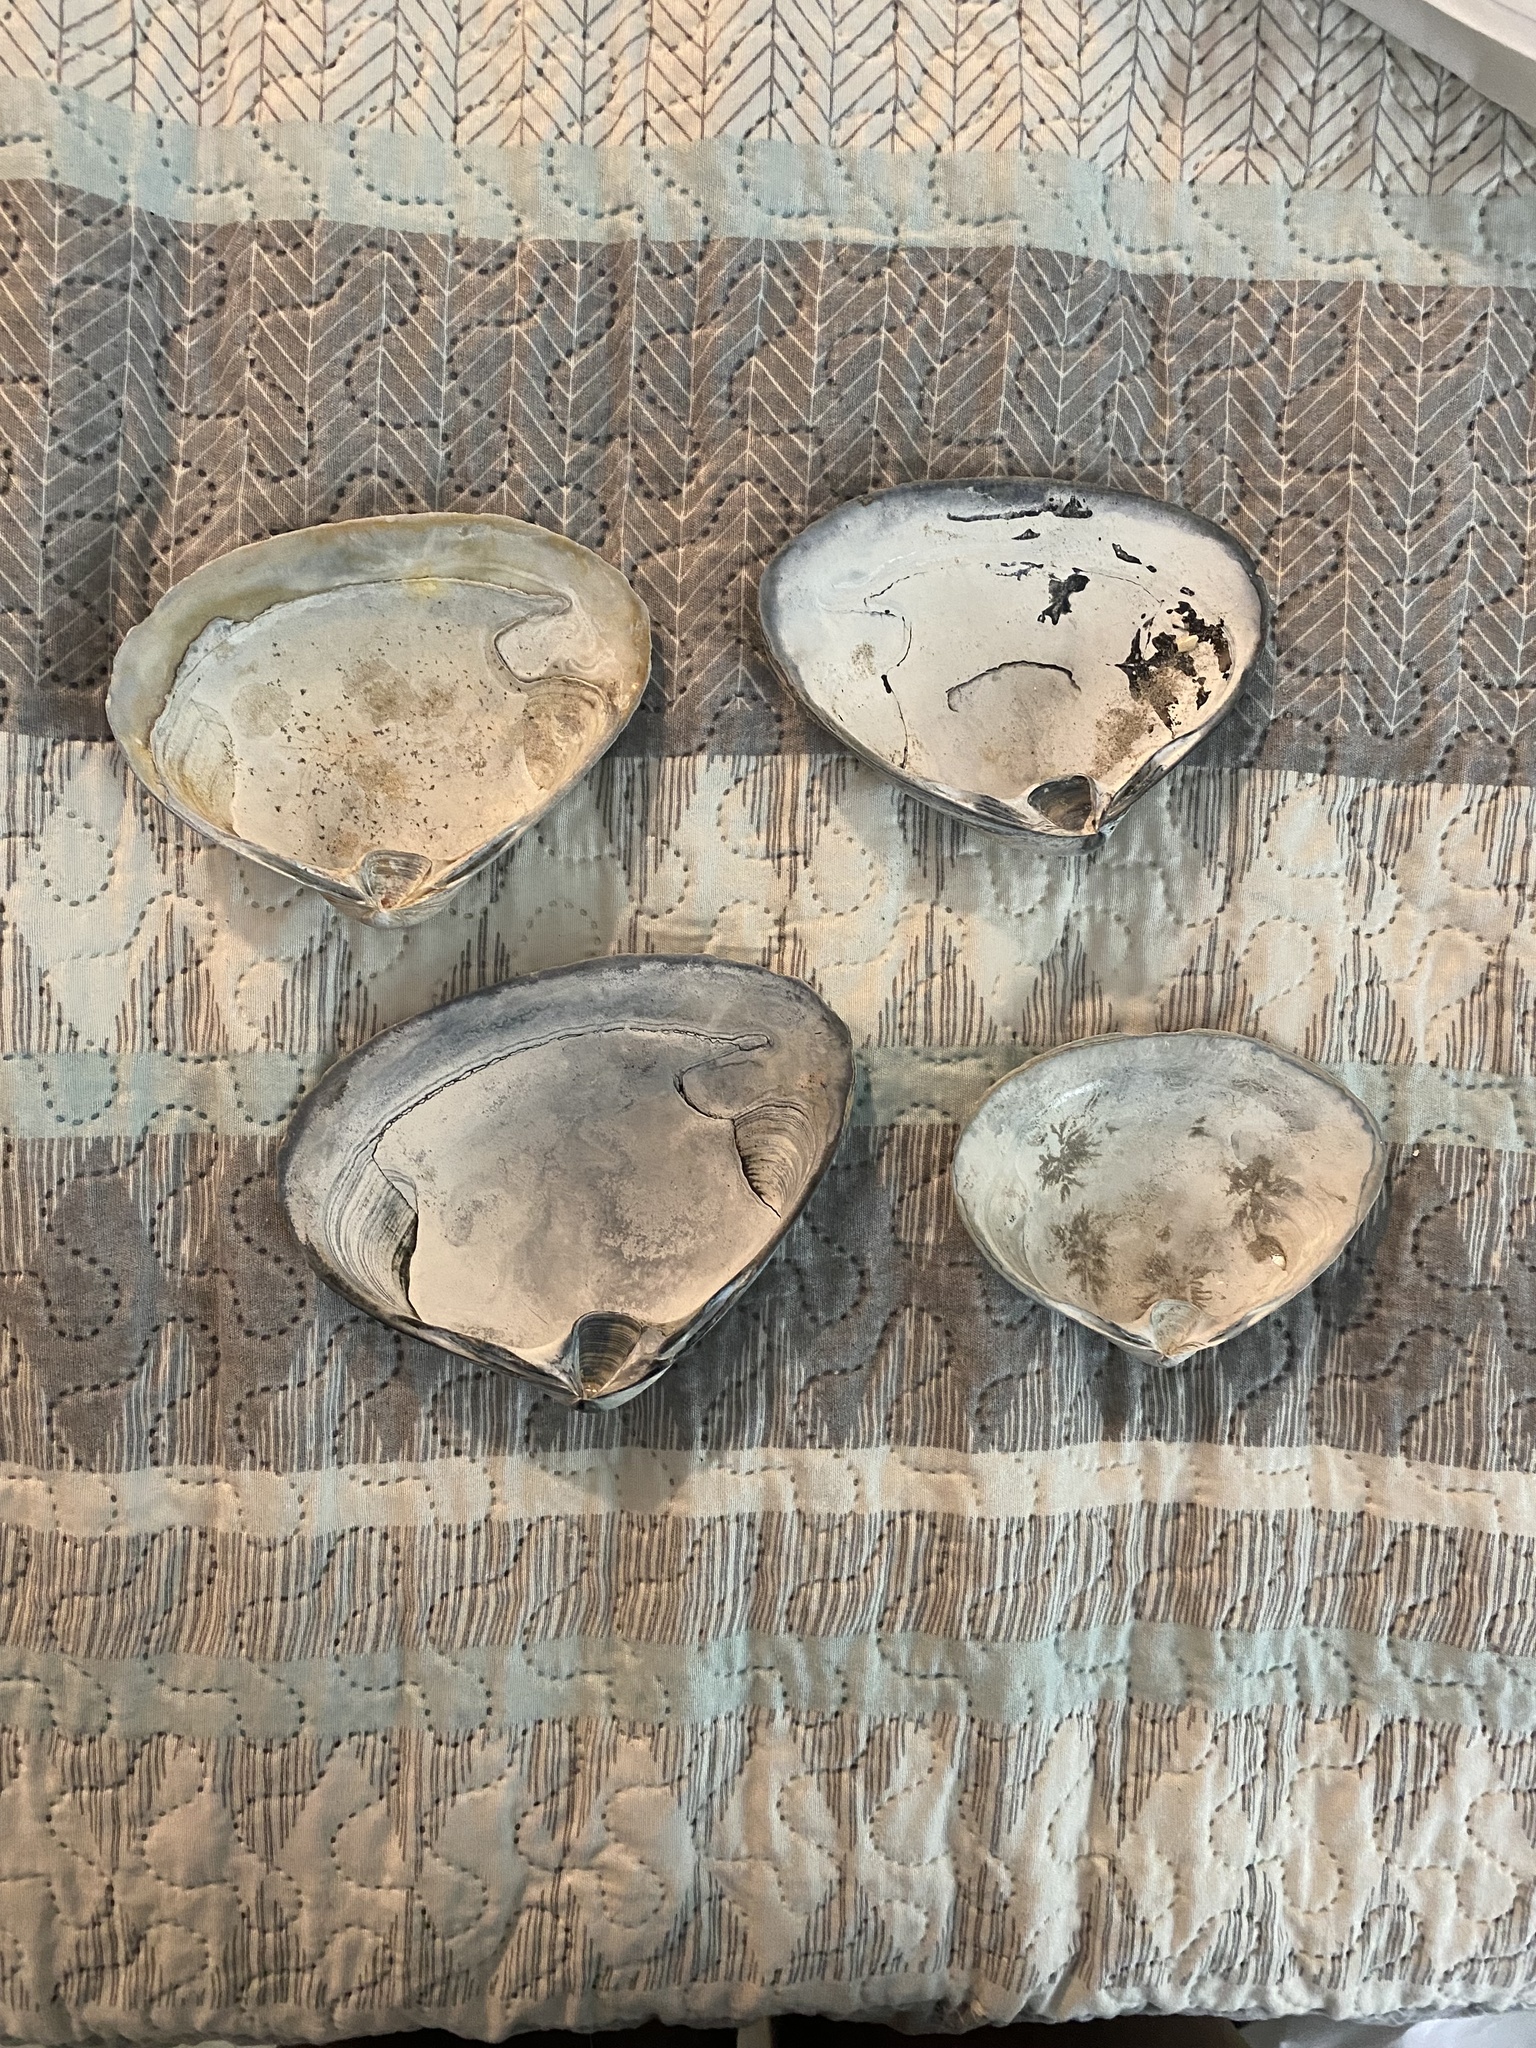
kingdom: Animalia
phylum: Mollusca
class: Bivalvia
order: Venerida
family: Mactridae
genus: Spisula
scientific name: Spisula solidissima
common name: Atlantic surf clam
